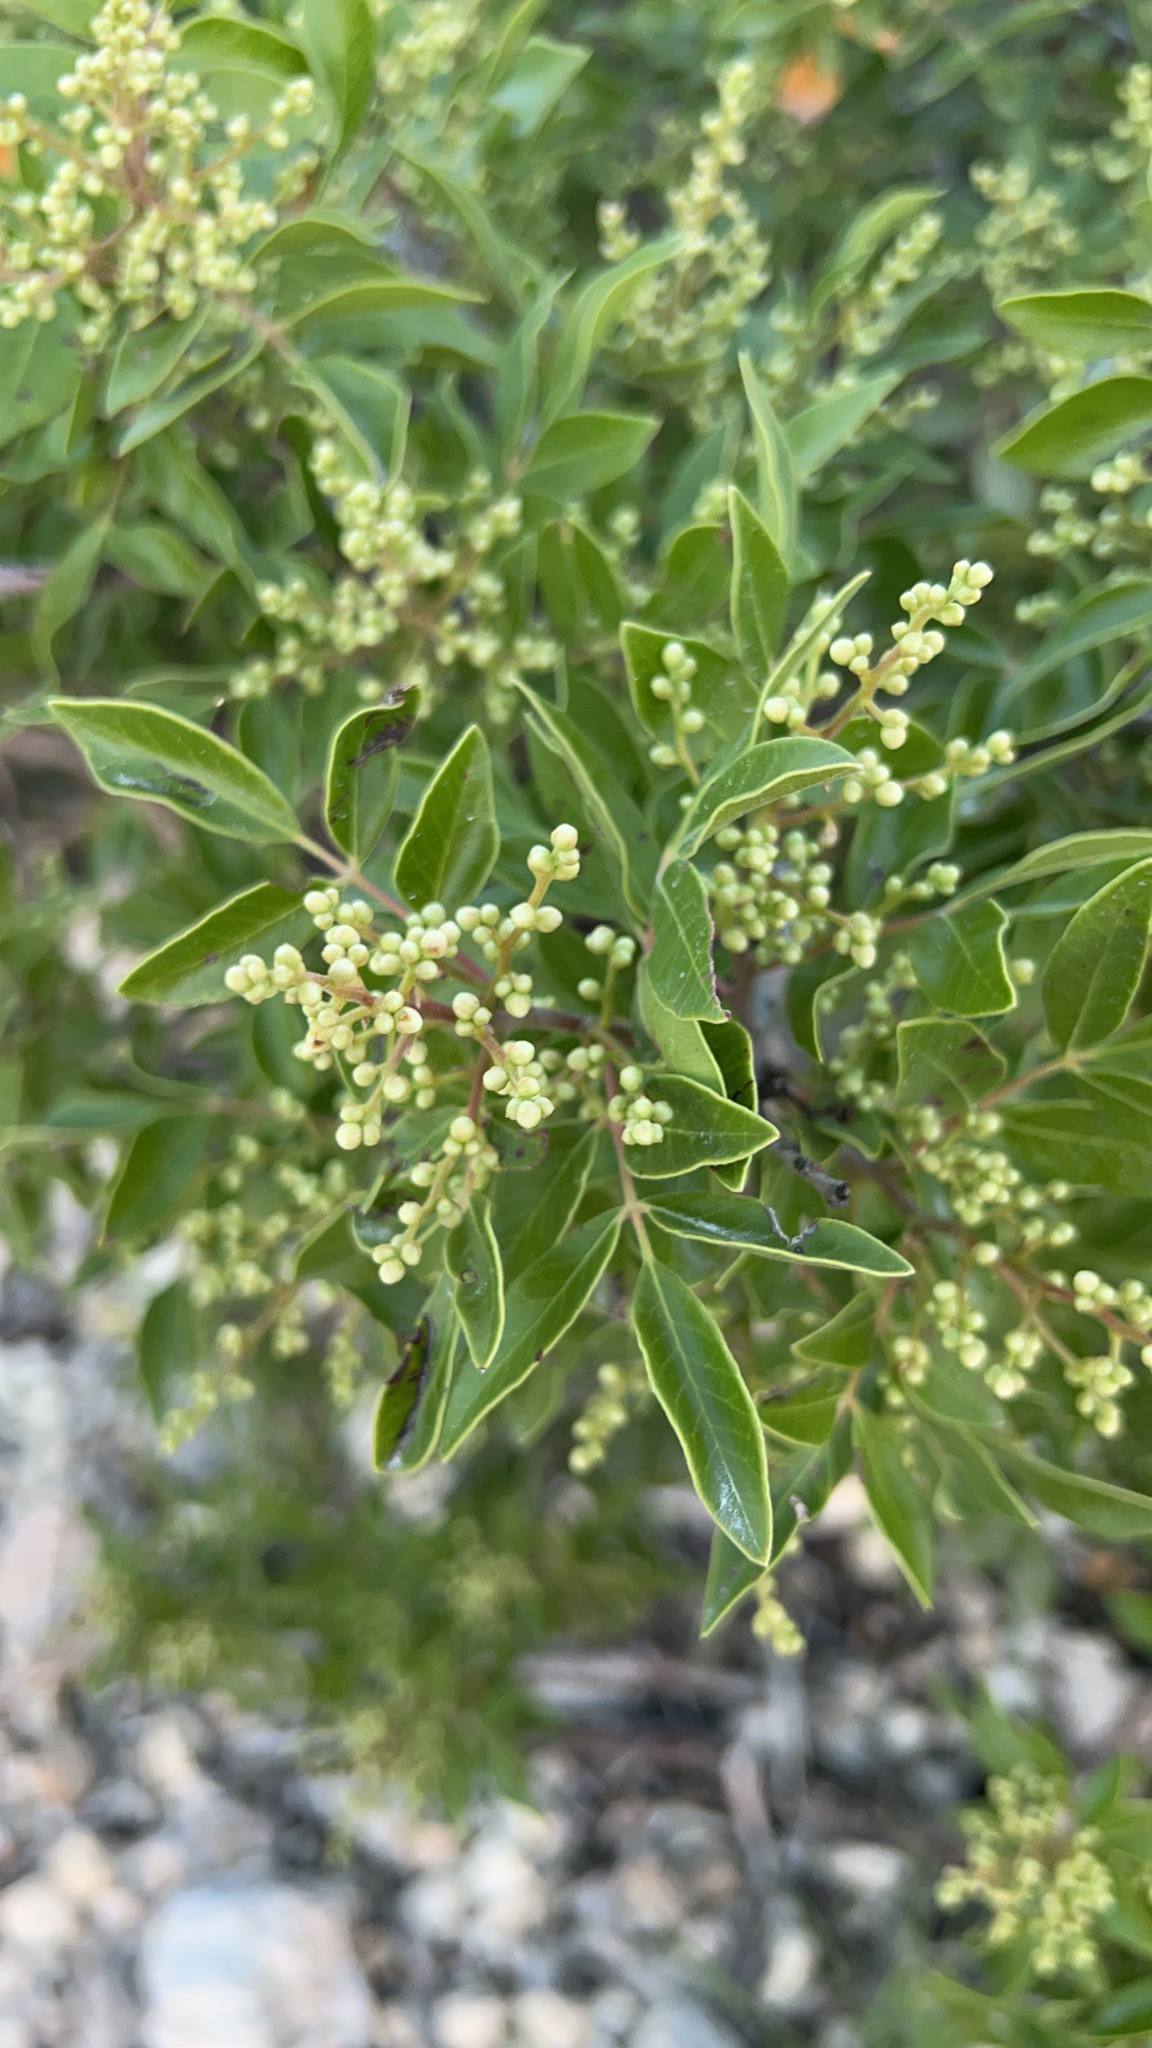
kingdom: Plantae
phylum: Tracheophyta
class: Magnoliopsida
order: Sapindales
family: Anacardiaceae
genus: Rhus
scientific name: Rhus virens
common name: Evergreen sumac
